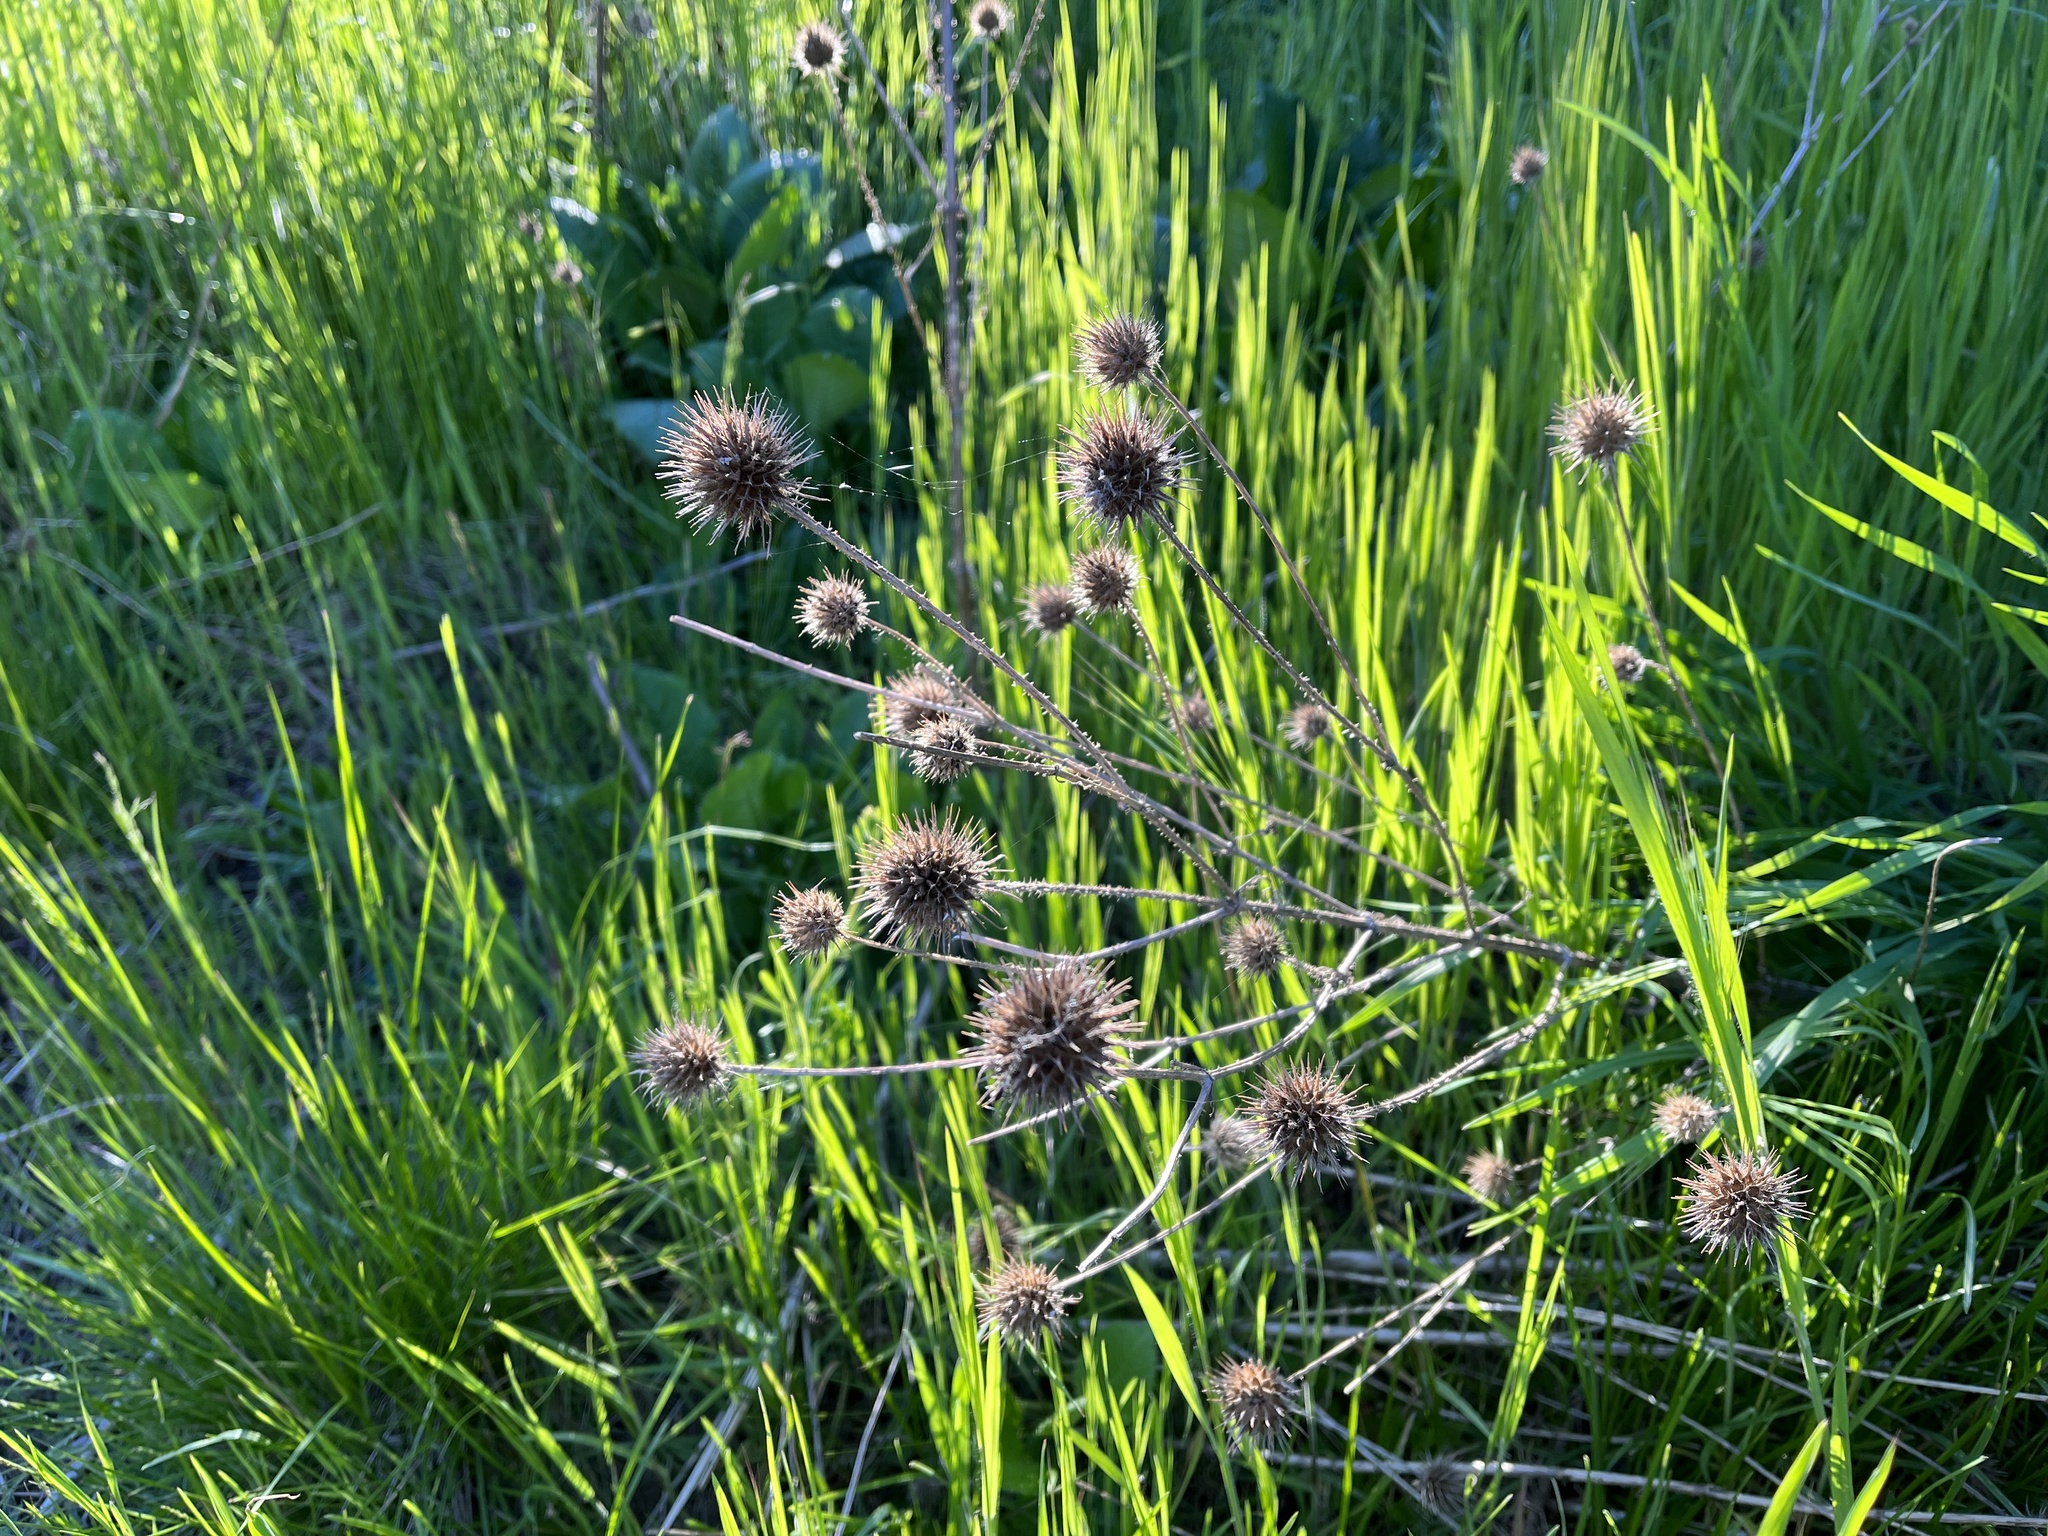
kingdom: Plantae
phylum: Tracheophyta
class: Magnoliopsida
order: Dipsacales
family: Caprifoliaceae
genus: Dipsacus
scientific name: Dipsacus strigosus
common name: Yellow-flowered teasel
